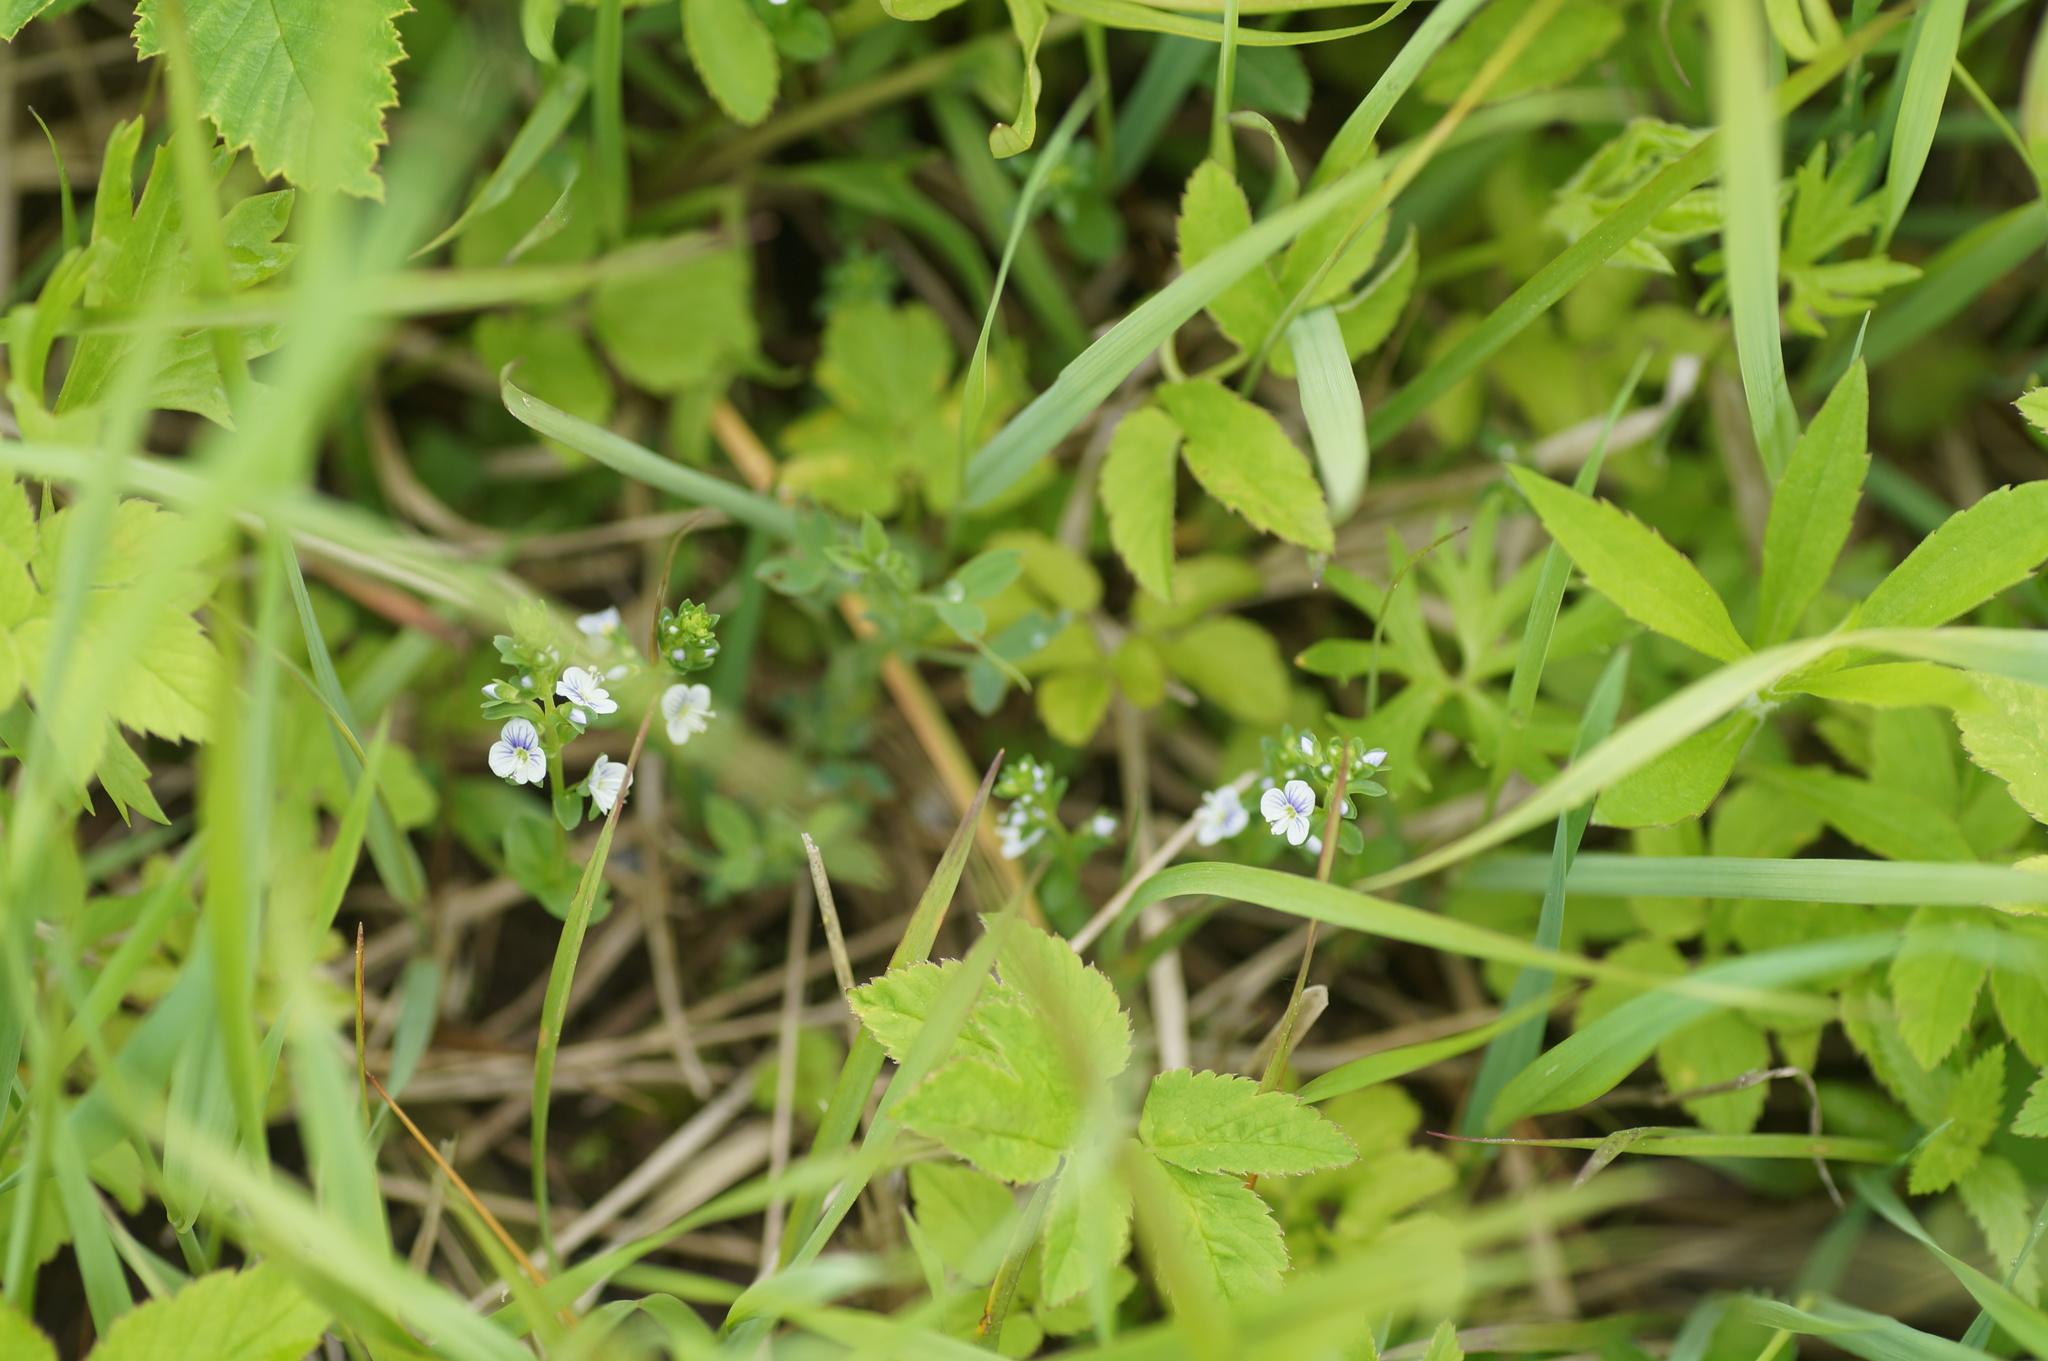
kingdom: Plantae
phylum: Tracheophyta
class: Magnoliopsida
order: Lamiales
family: Plantaginaceae
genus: Veronica
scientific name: Veronica serpyllifolia
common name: Thyme-leaved speedwell
